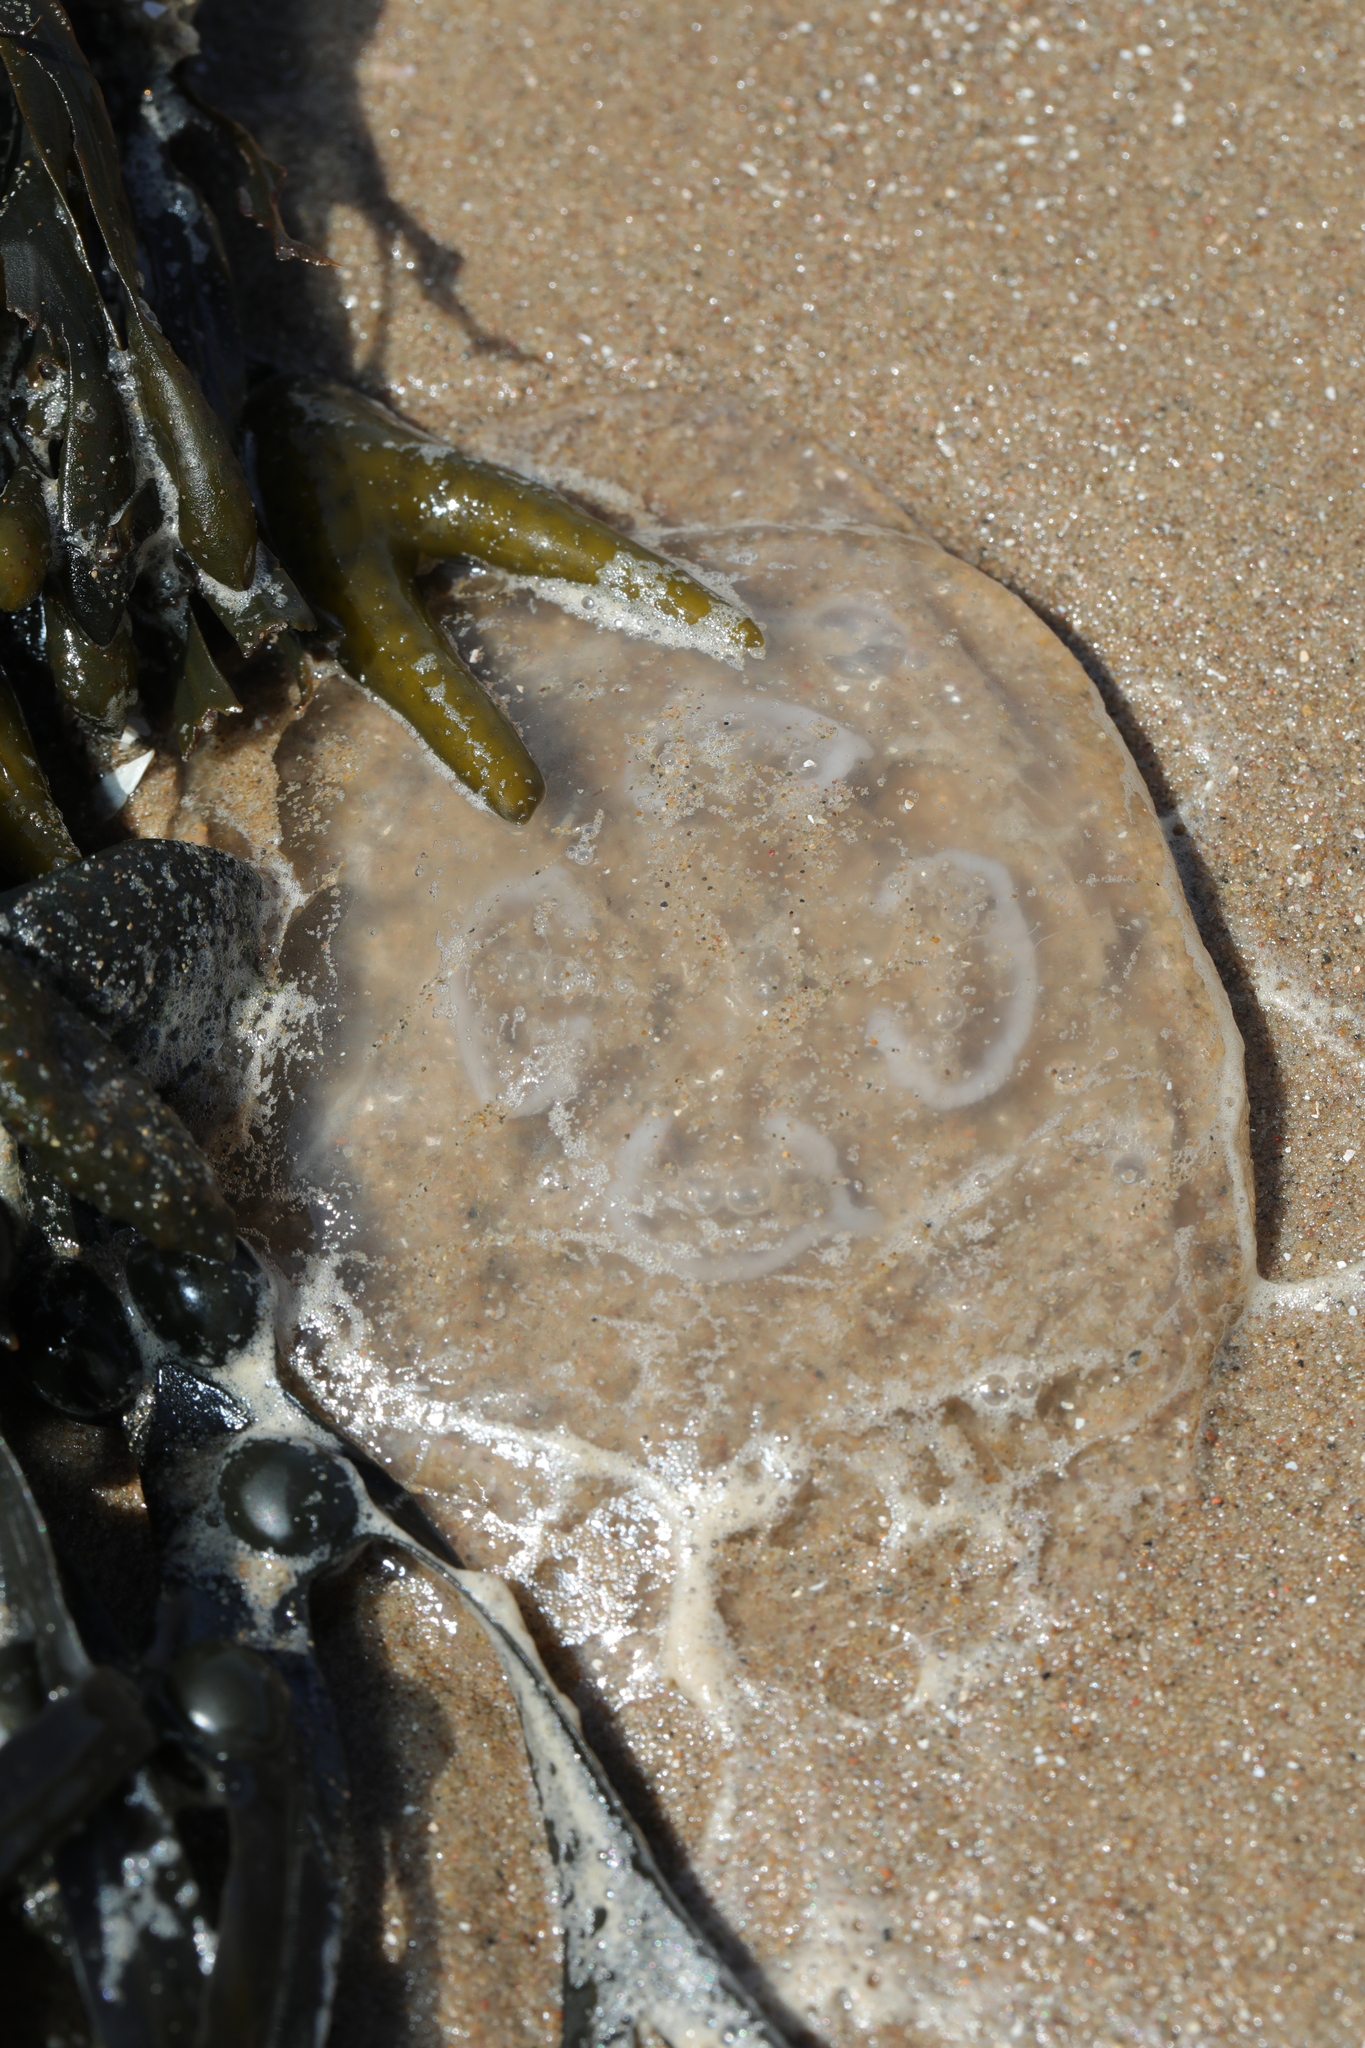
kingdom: Animalia
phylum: Cnidaria
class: Scyphozoa
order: Semaeostomeae
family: Ulmaridae
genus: Aurelia
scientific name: Aurelia aurita
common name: Moon jellyfish
